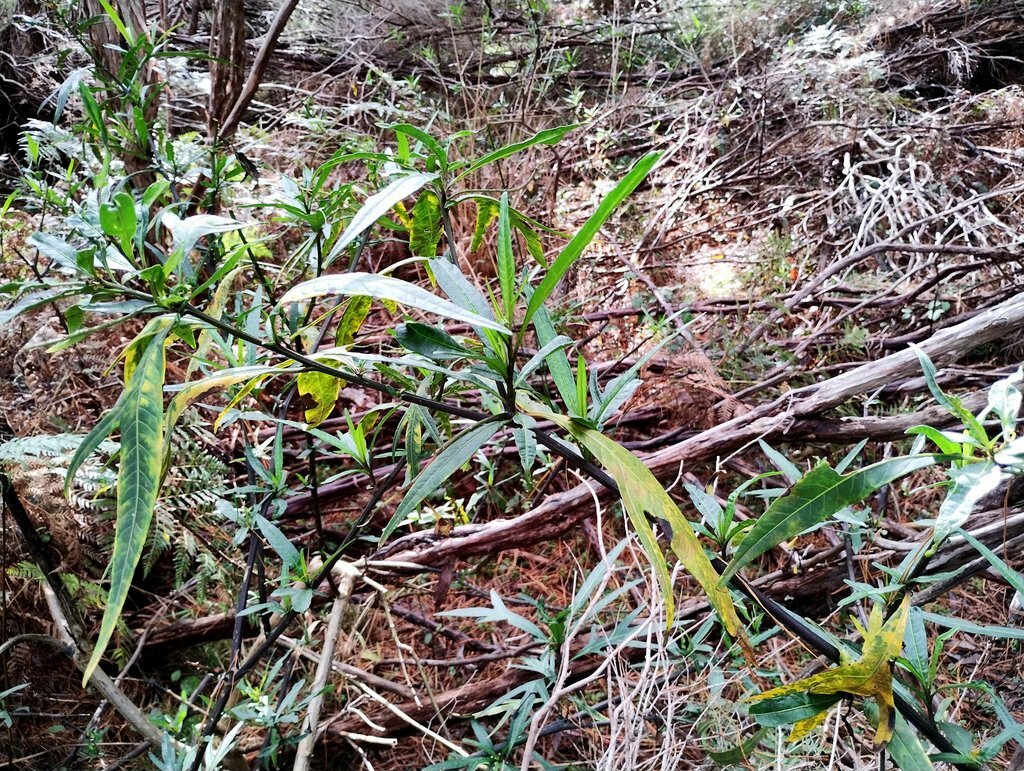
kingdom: Plantae
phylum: Tracheophyta
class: Magnoliopsida
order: Solanales
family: Solanaceae
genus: Solanum
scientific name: Solanum
